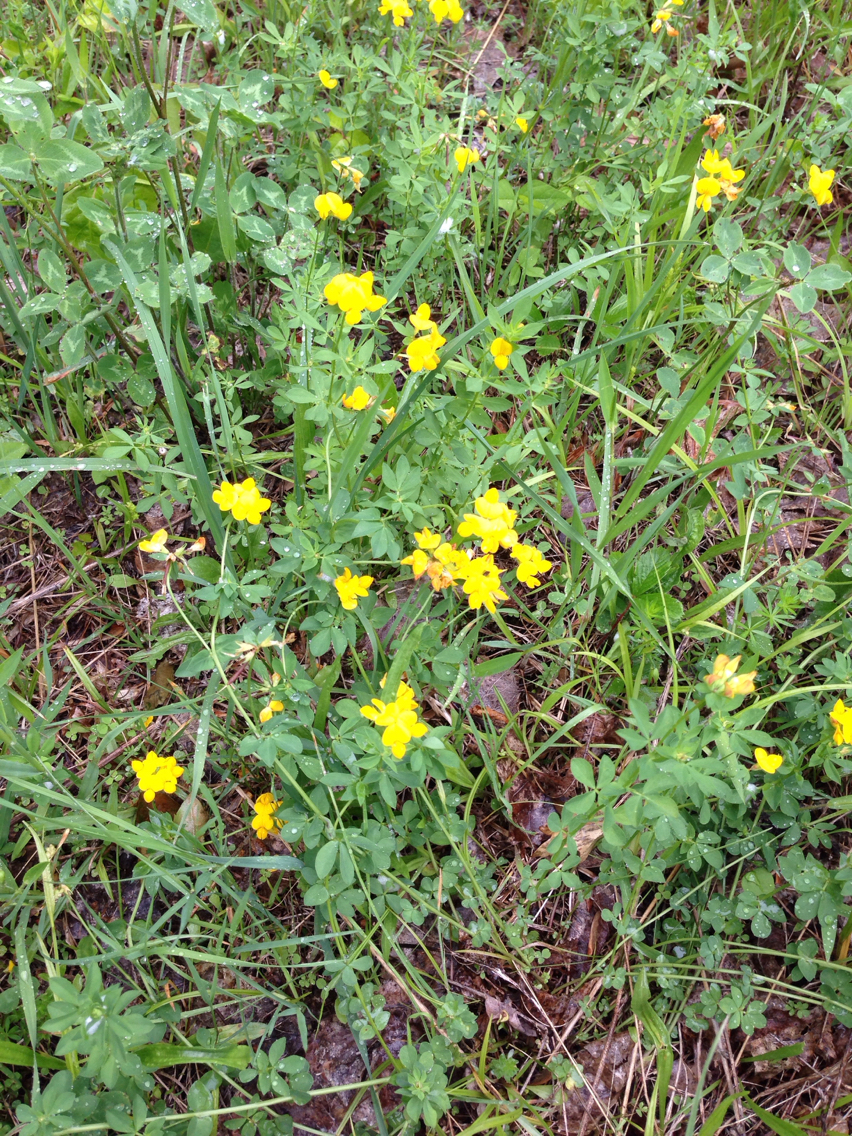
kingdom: Plantae
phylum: Tracheophyta
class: Magnoliopsida
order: Fabales
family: Fabaceae
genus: Lotus
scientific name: Lotus corniculatus
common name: Common bird's-foot-trefoil
